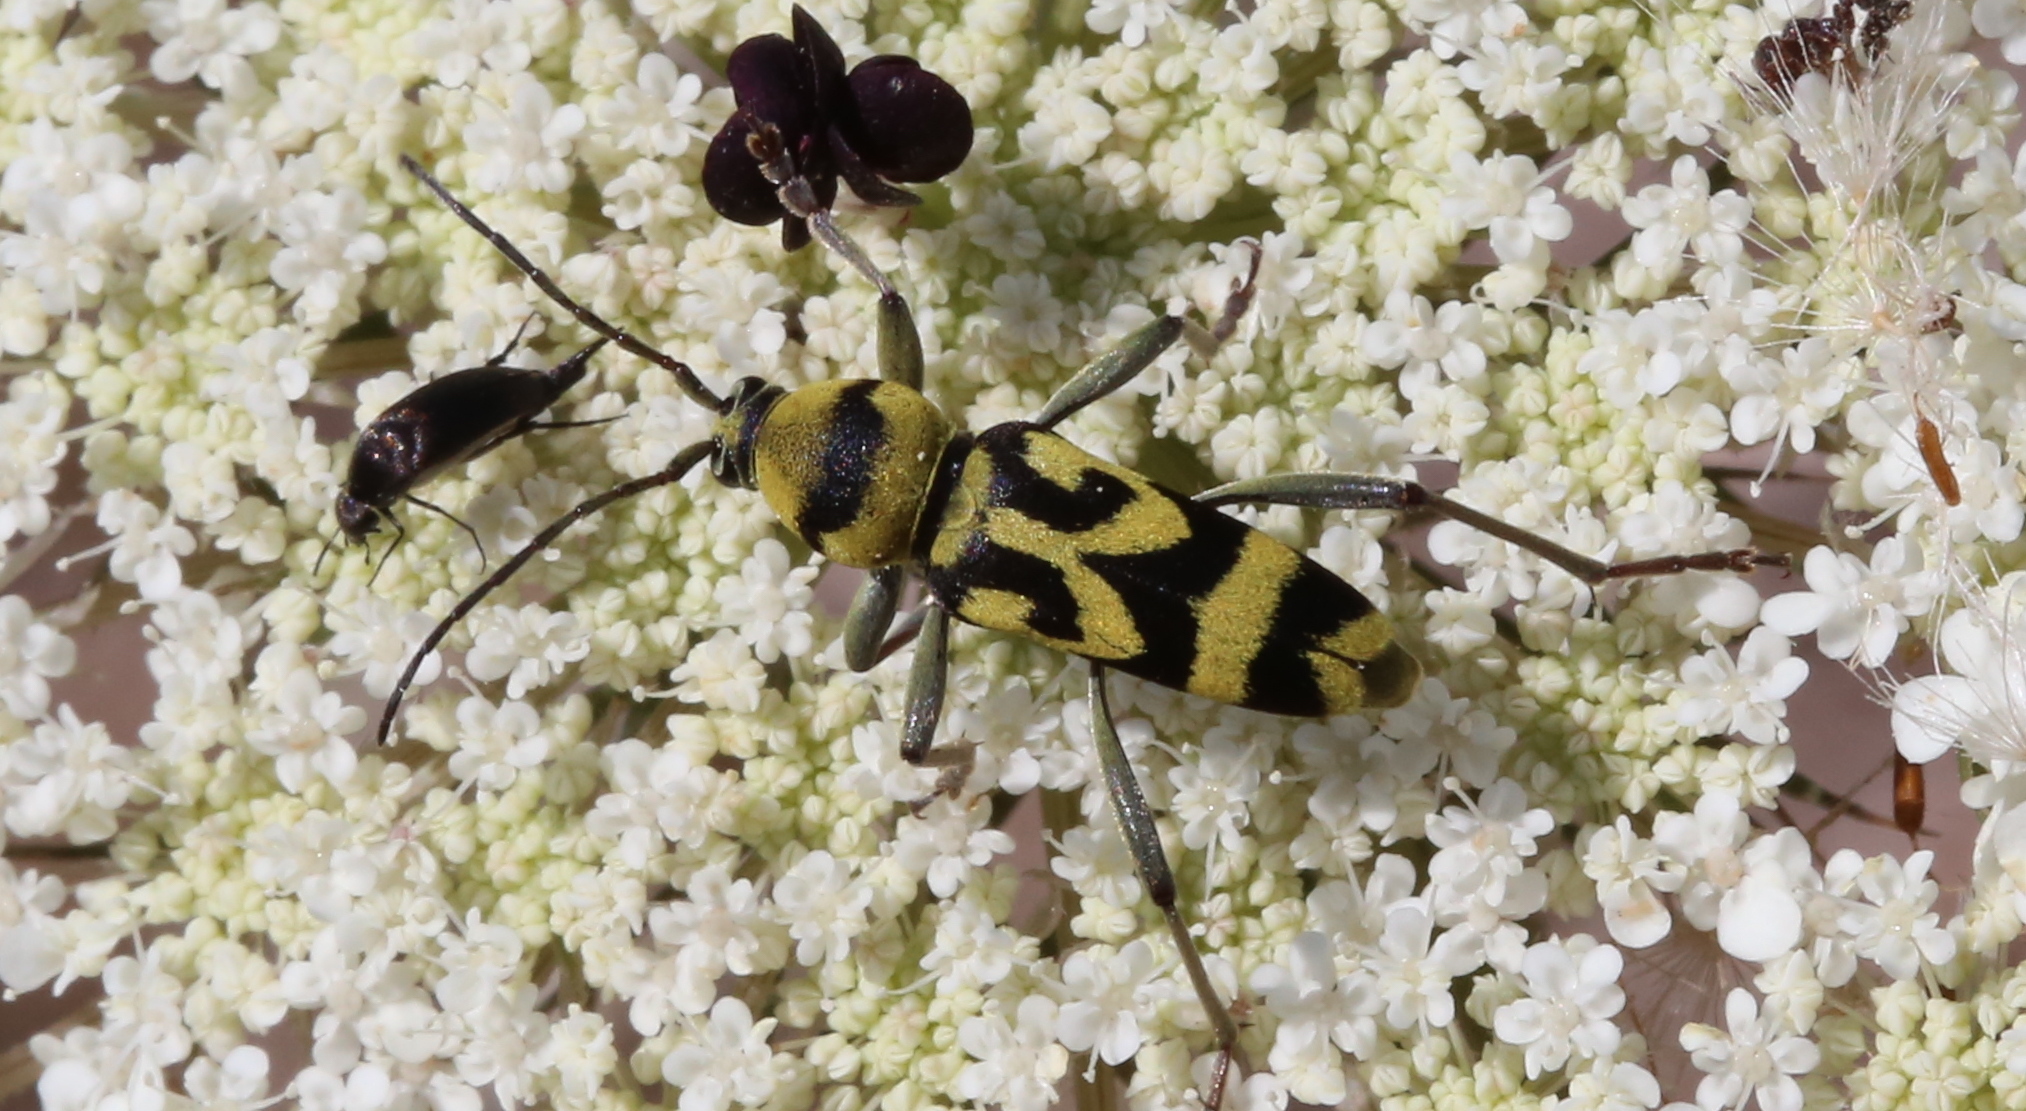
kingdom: Animalia
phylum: Arthropoda
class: Insecta
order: Coleoptera
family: Cerambycidae
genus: Chlorophorus
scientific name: Chlorophorus varius
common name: Grape wood borer
